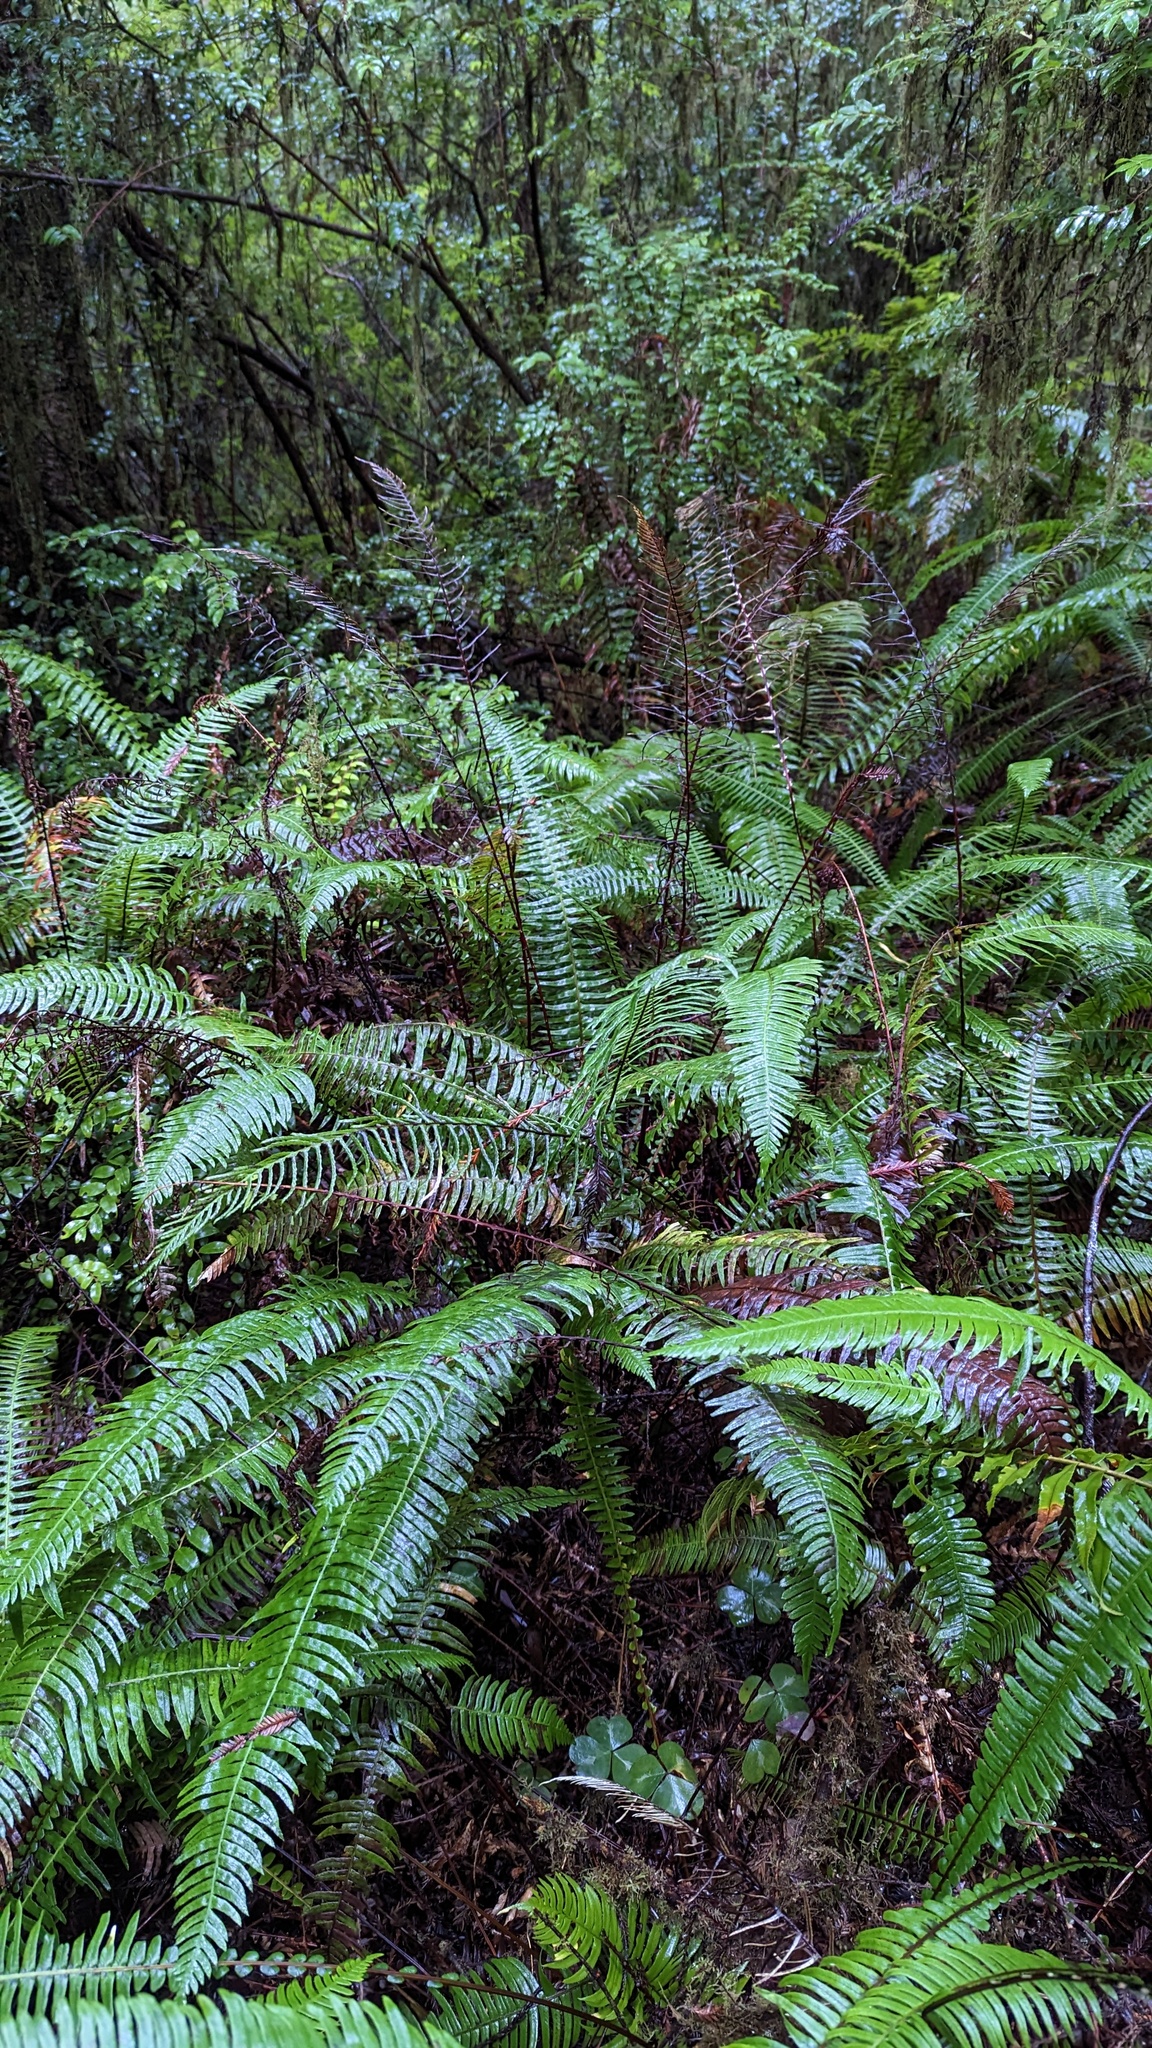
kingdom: Plantae
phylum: Tracheophyta
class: Polypodiopsida
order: Polypodiales
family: Dryopteridaceae
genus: Polystichum
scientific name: Polystichum munitum
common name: Western sword-fern
